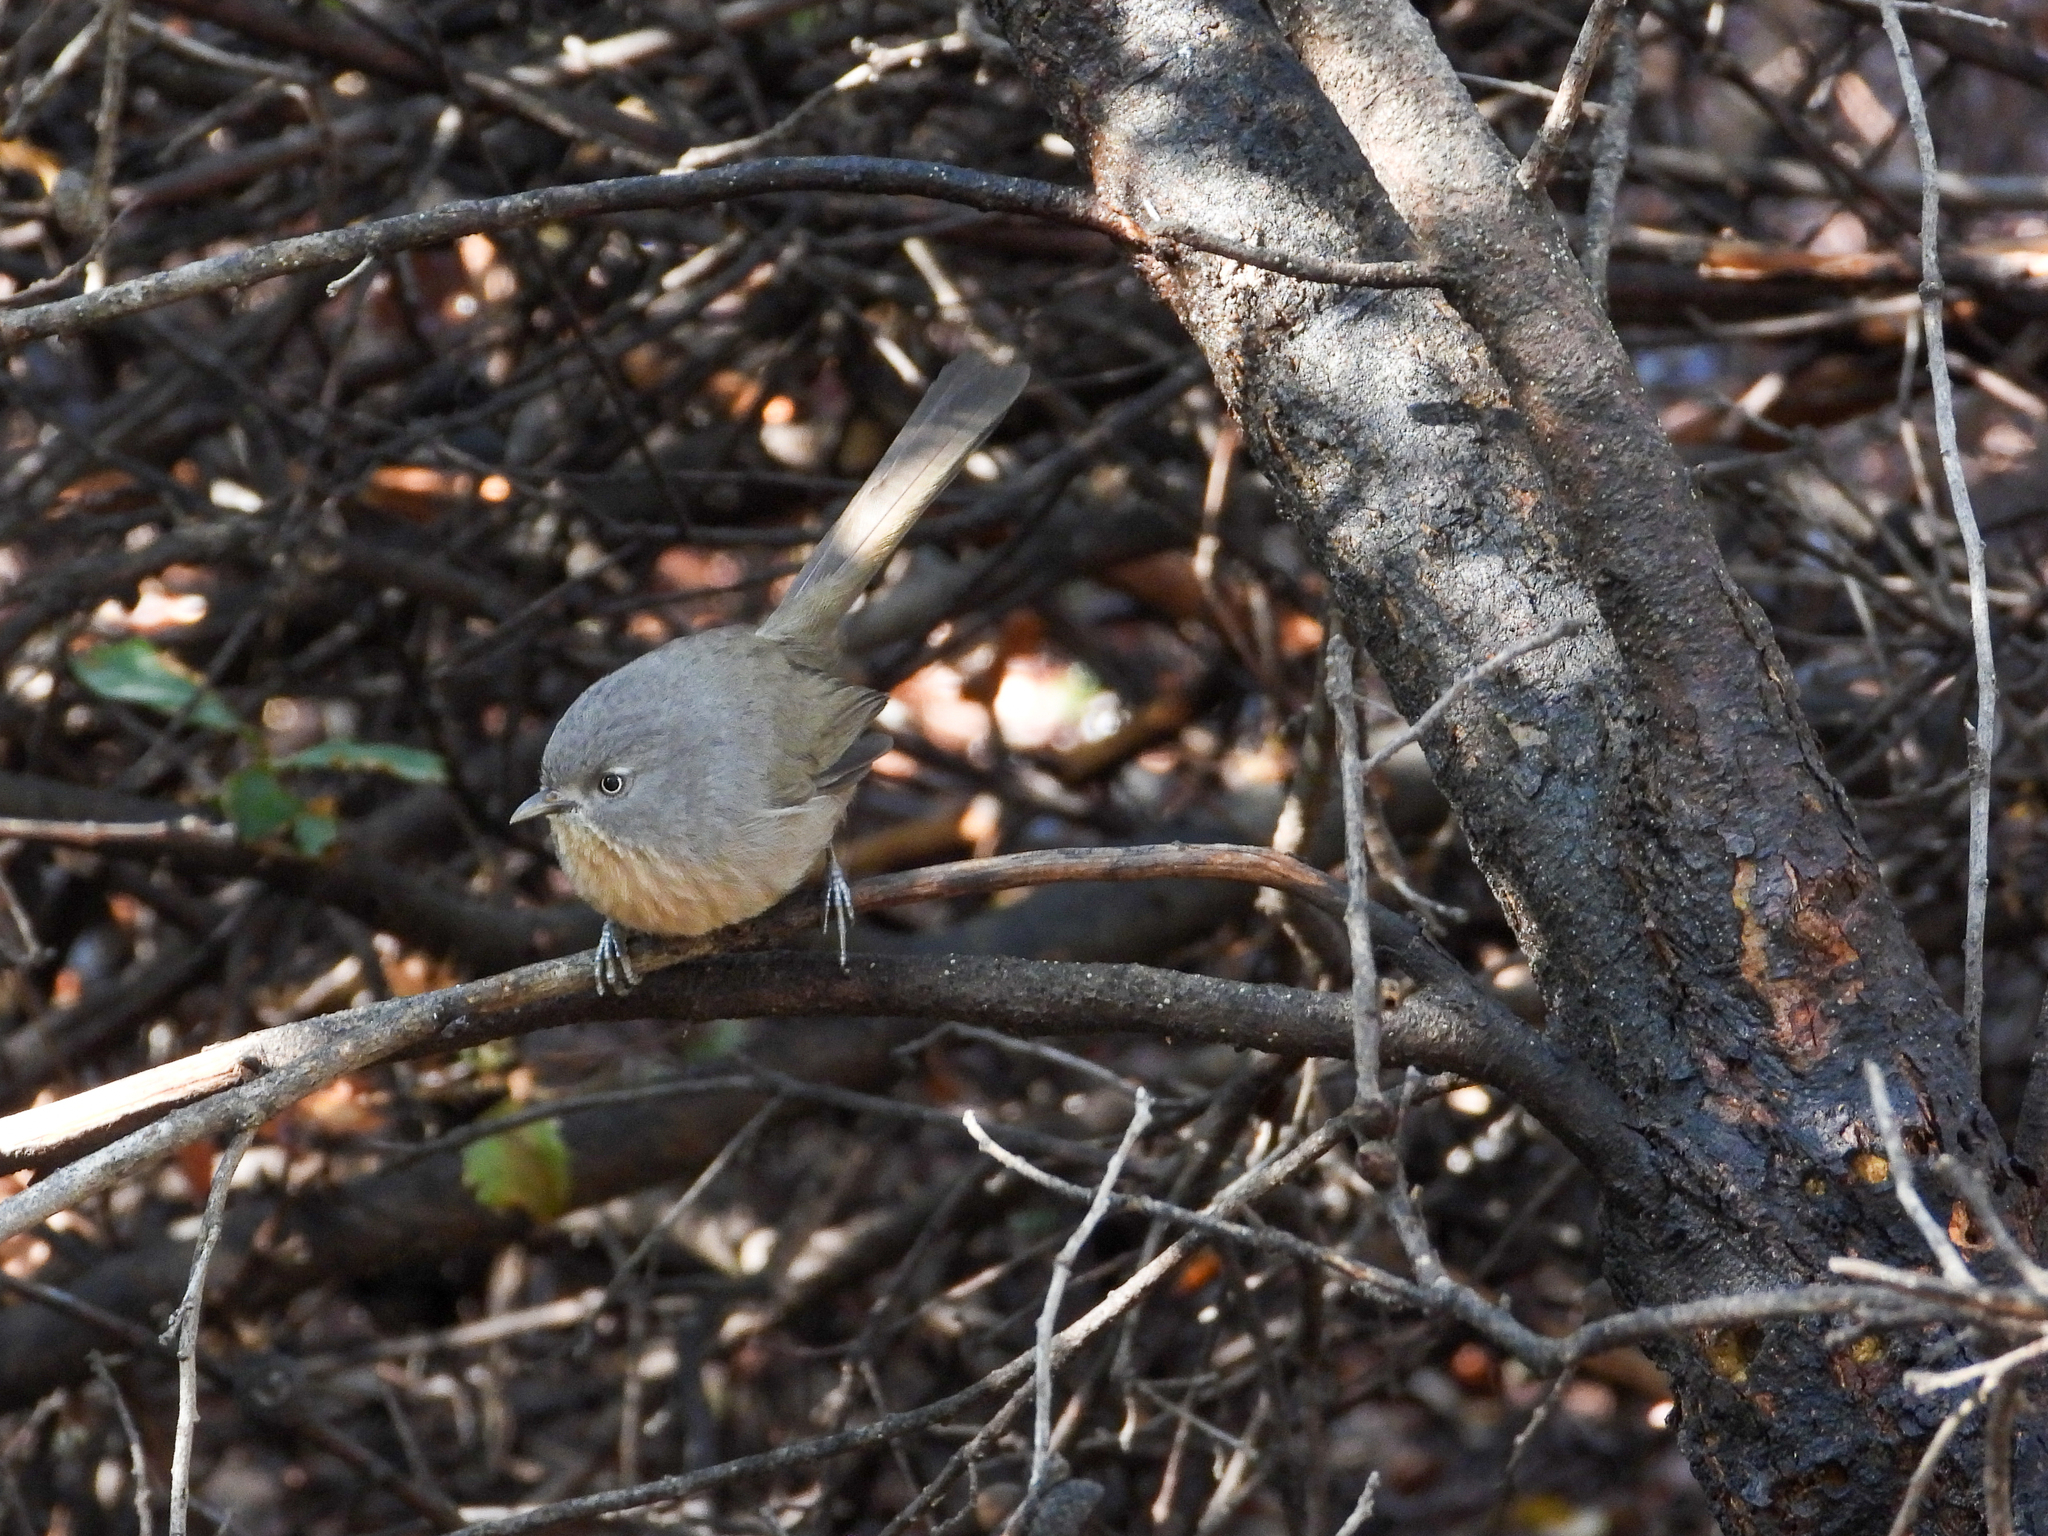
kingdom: Animalia
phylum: Chordata
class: Aves
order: Passeriformes
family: Sylviidae
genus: Chamaea
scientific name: Chamaea fasciata
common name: Wrentit
